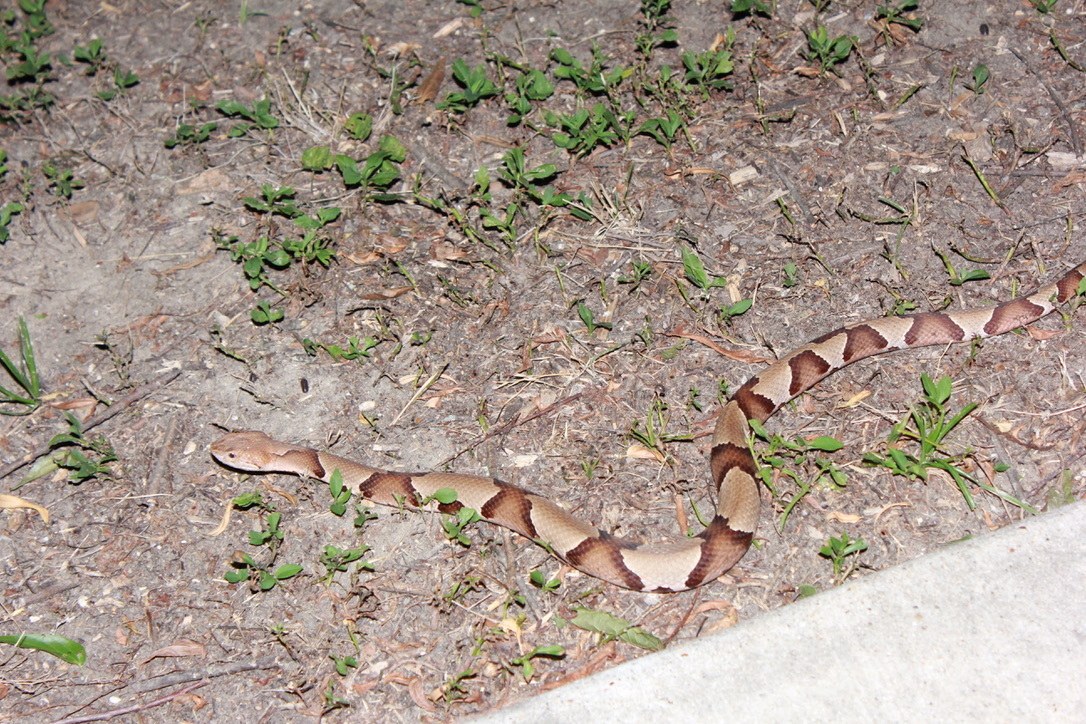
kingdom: Animalia
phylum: Chordata
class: Squamata
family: Viperidae
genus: Agkistrodon
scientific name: Agkistrodon laticinctus
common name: Broad-banded copperhead
